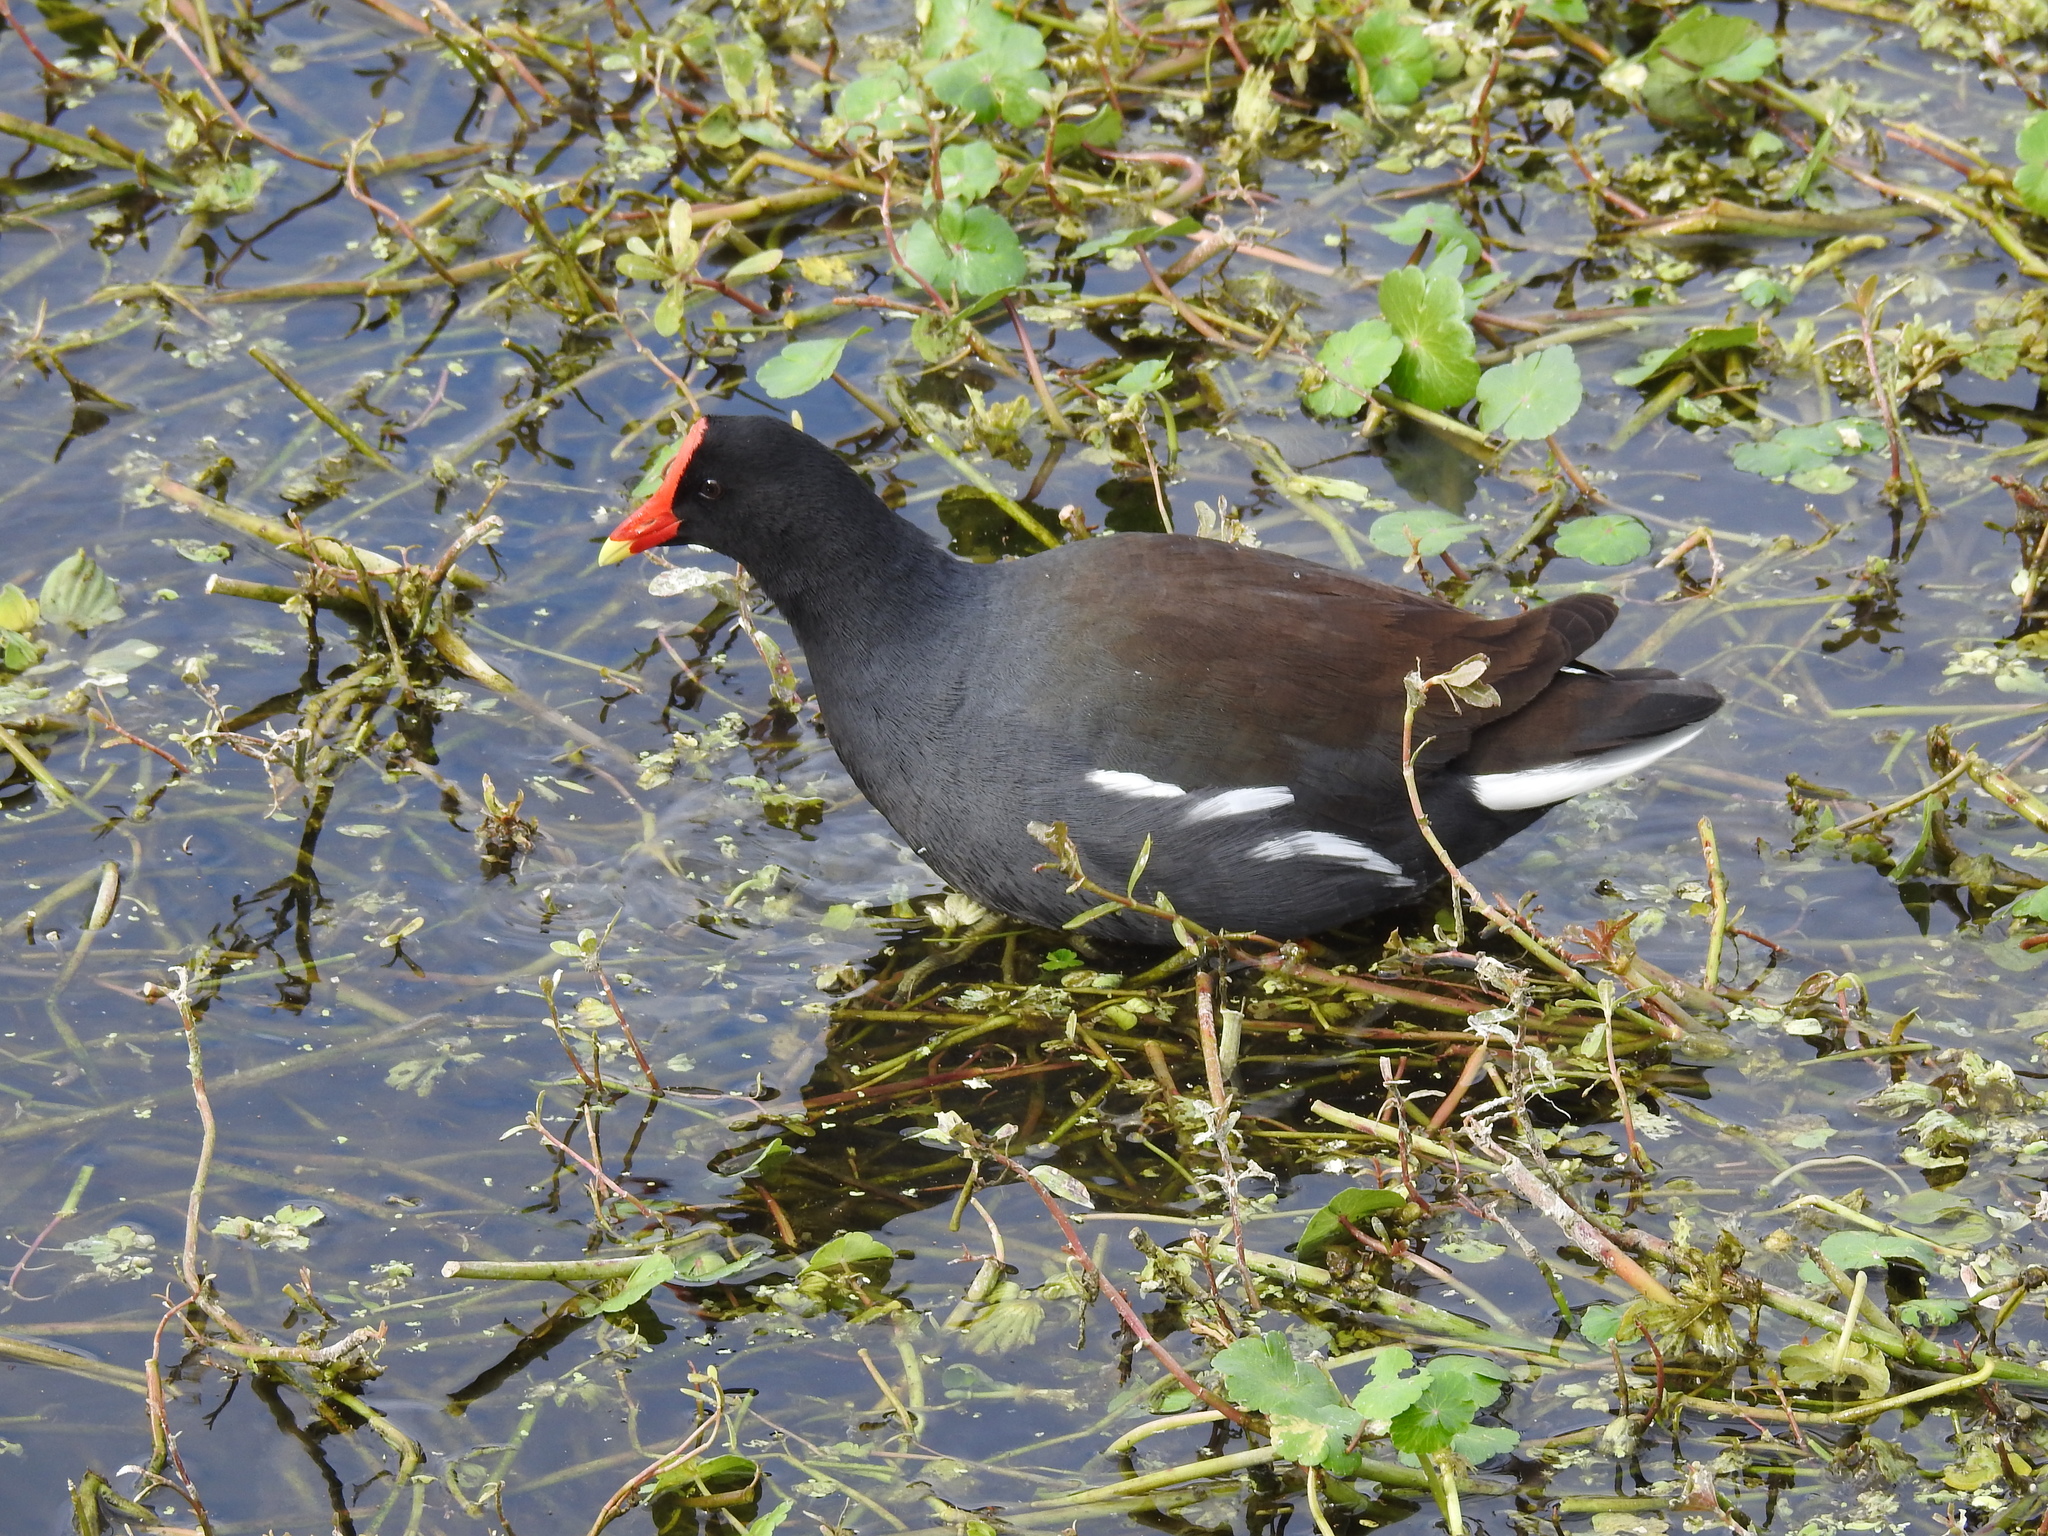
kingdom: Animalia
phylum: Chordata
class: Aves
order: Gruiformes
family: Rallidae
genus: Gallinula
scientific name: Gallinula chloropus
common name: Common moorhen
